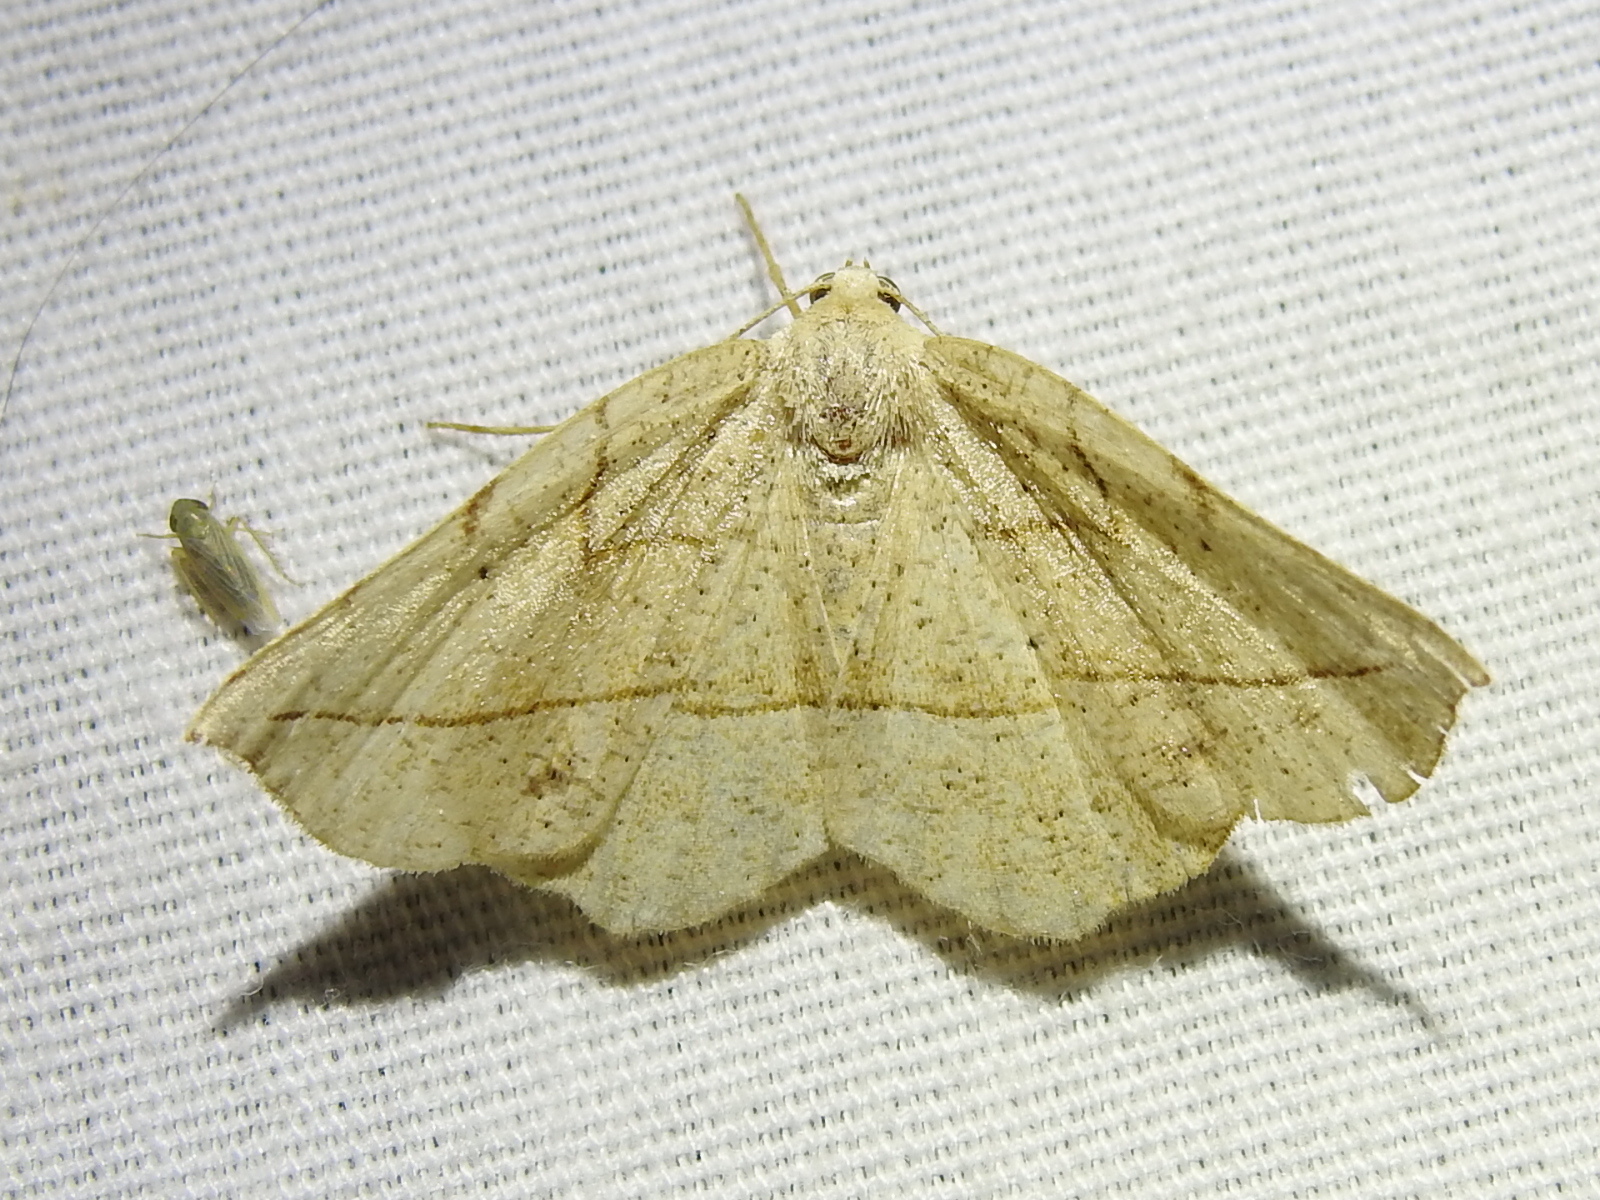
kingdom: Animalia
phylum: Arthropoda
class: Insecta
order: Lepidoptera
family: Geometridae
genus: Eusarca
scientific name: Eusarca packardaria
